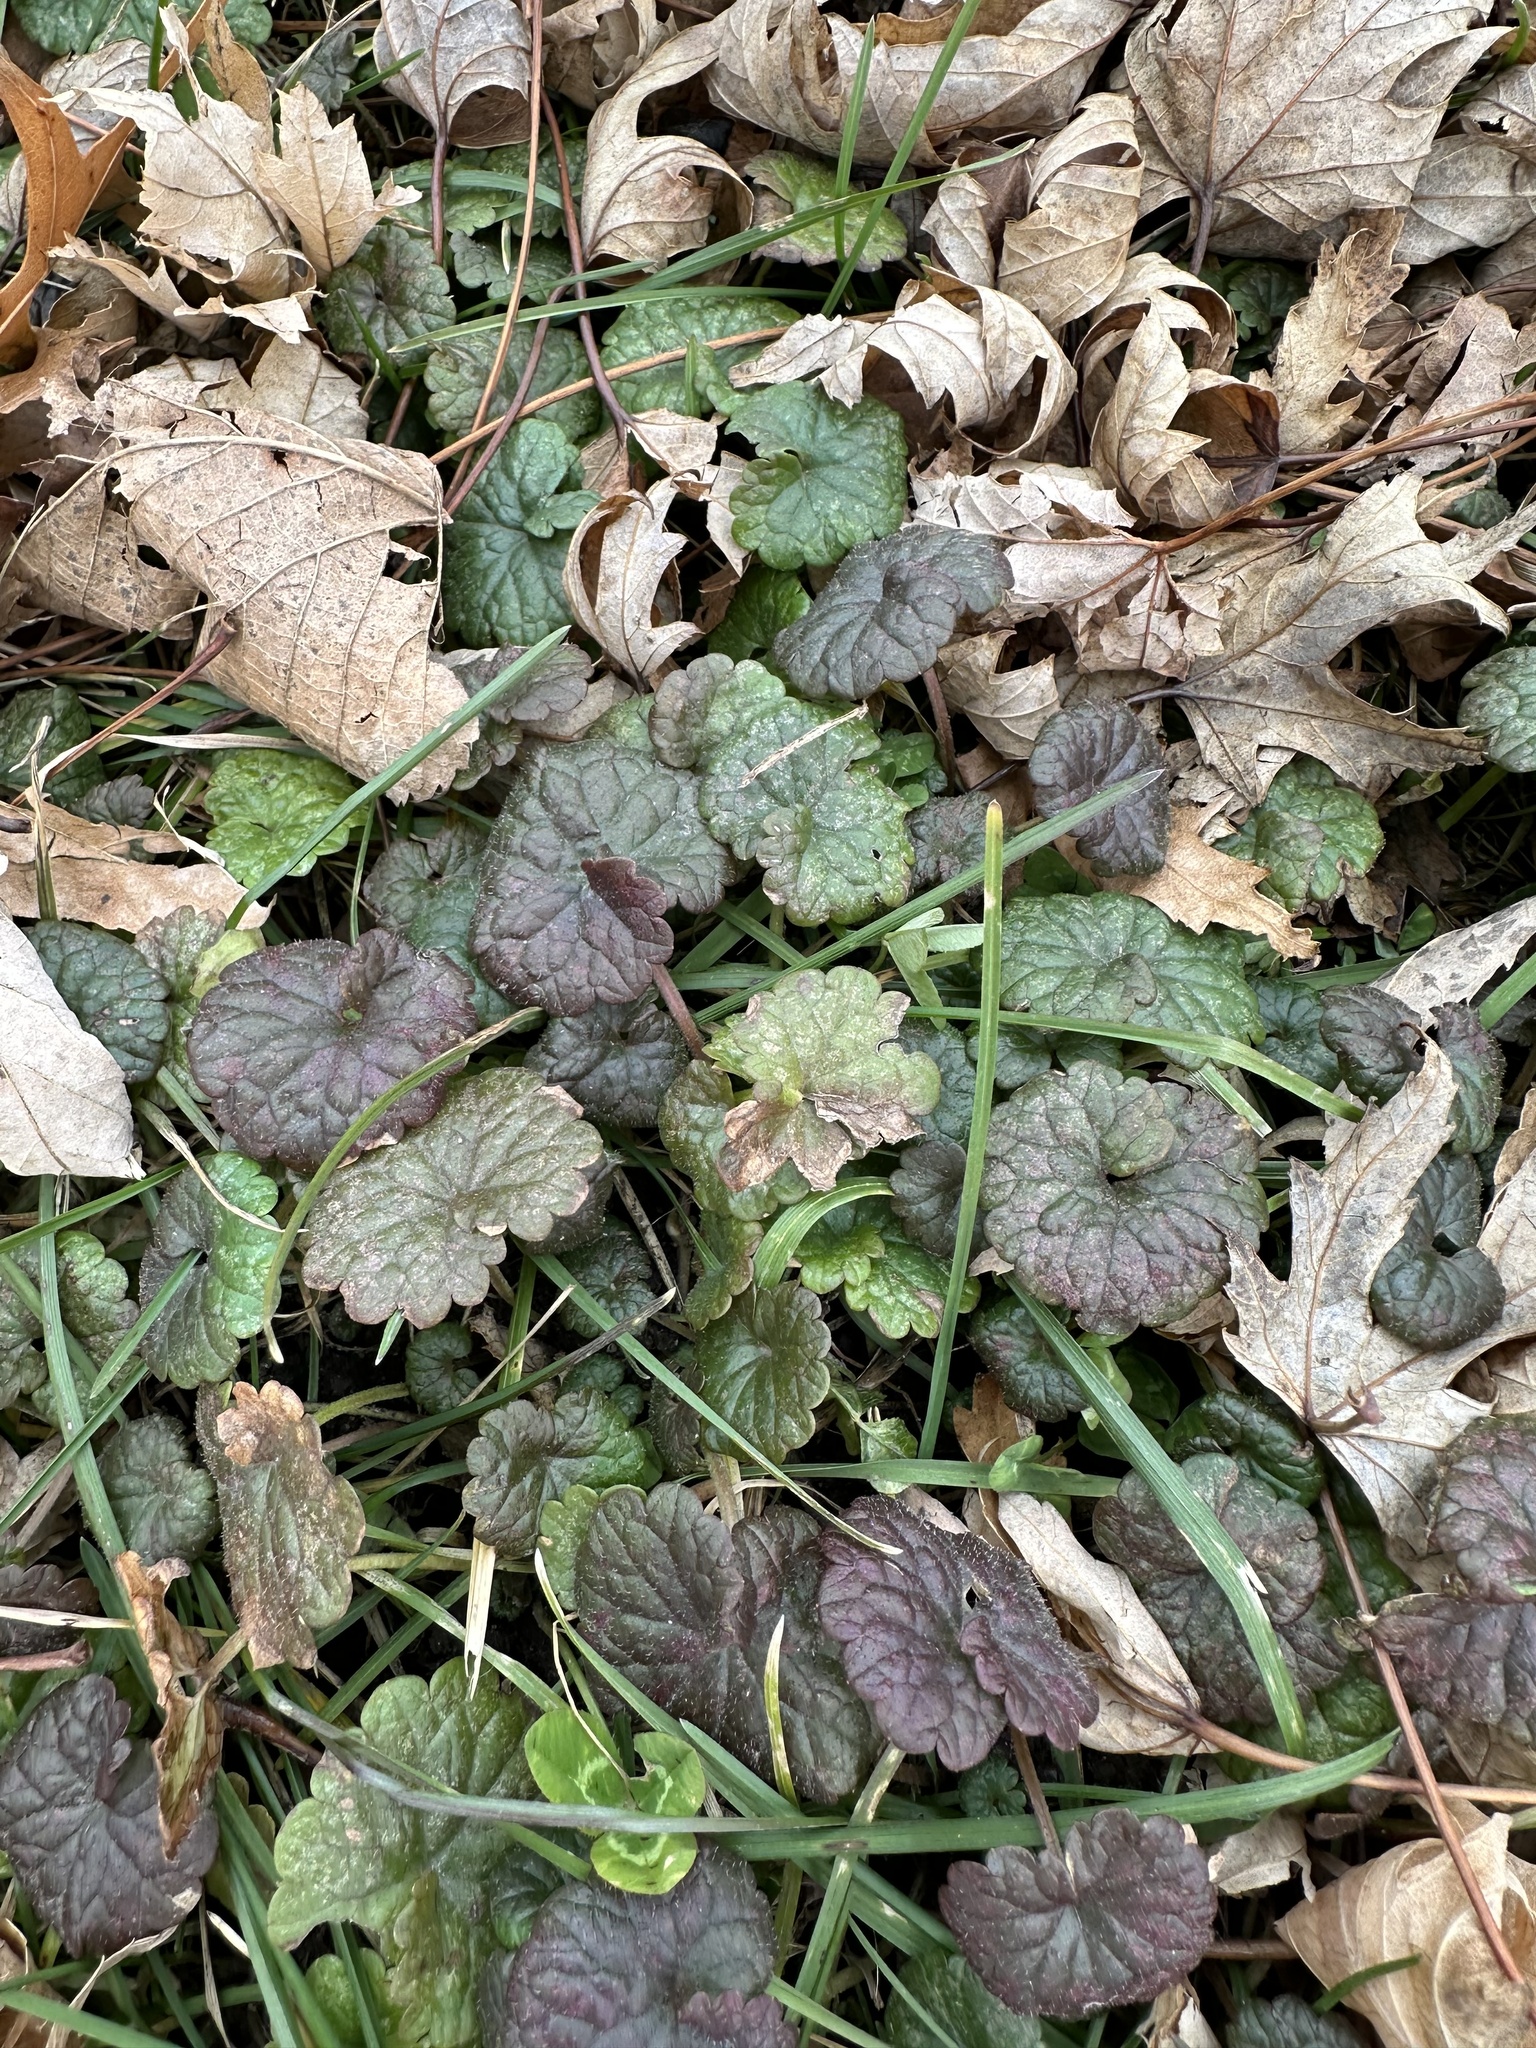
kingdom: Plantae
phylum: Tracheophyta
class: Magnoliopsida
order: Lamiales
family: Lamiaceae
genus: Glechoma
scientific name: Glechoma hederacea
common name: Ground ivy
